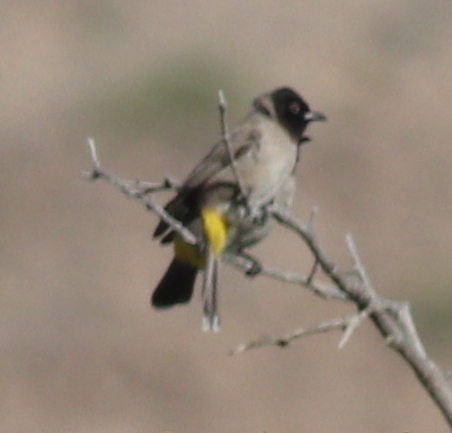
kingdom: Animalia
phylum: Chordata
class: Aves
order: Passeriformes
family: Pycnonotidae
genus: Pycnonotus
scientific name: Pycnonotus xanthopygos
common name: White-spectacled bulbul
